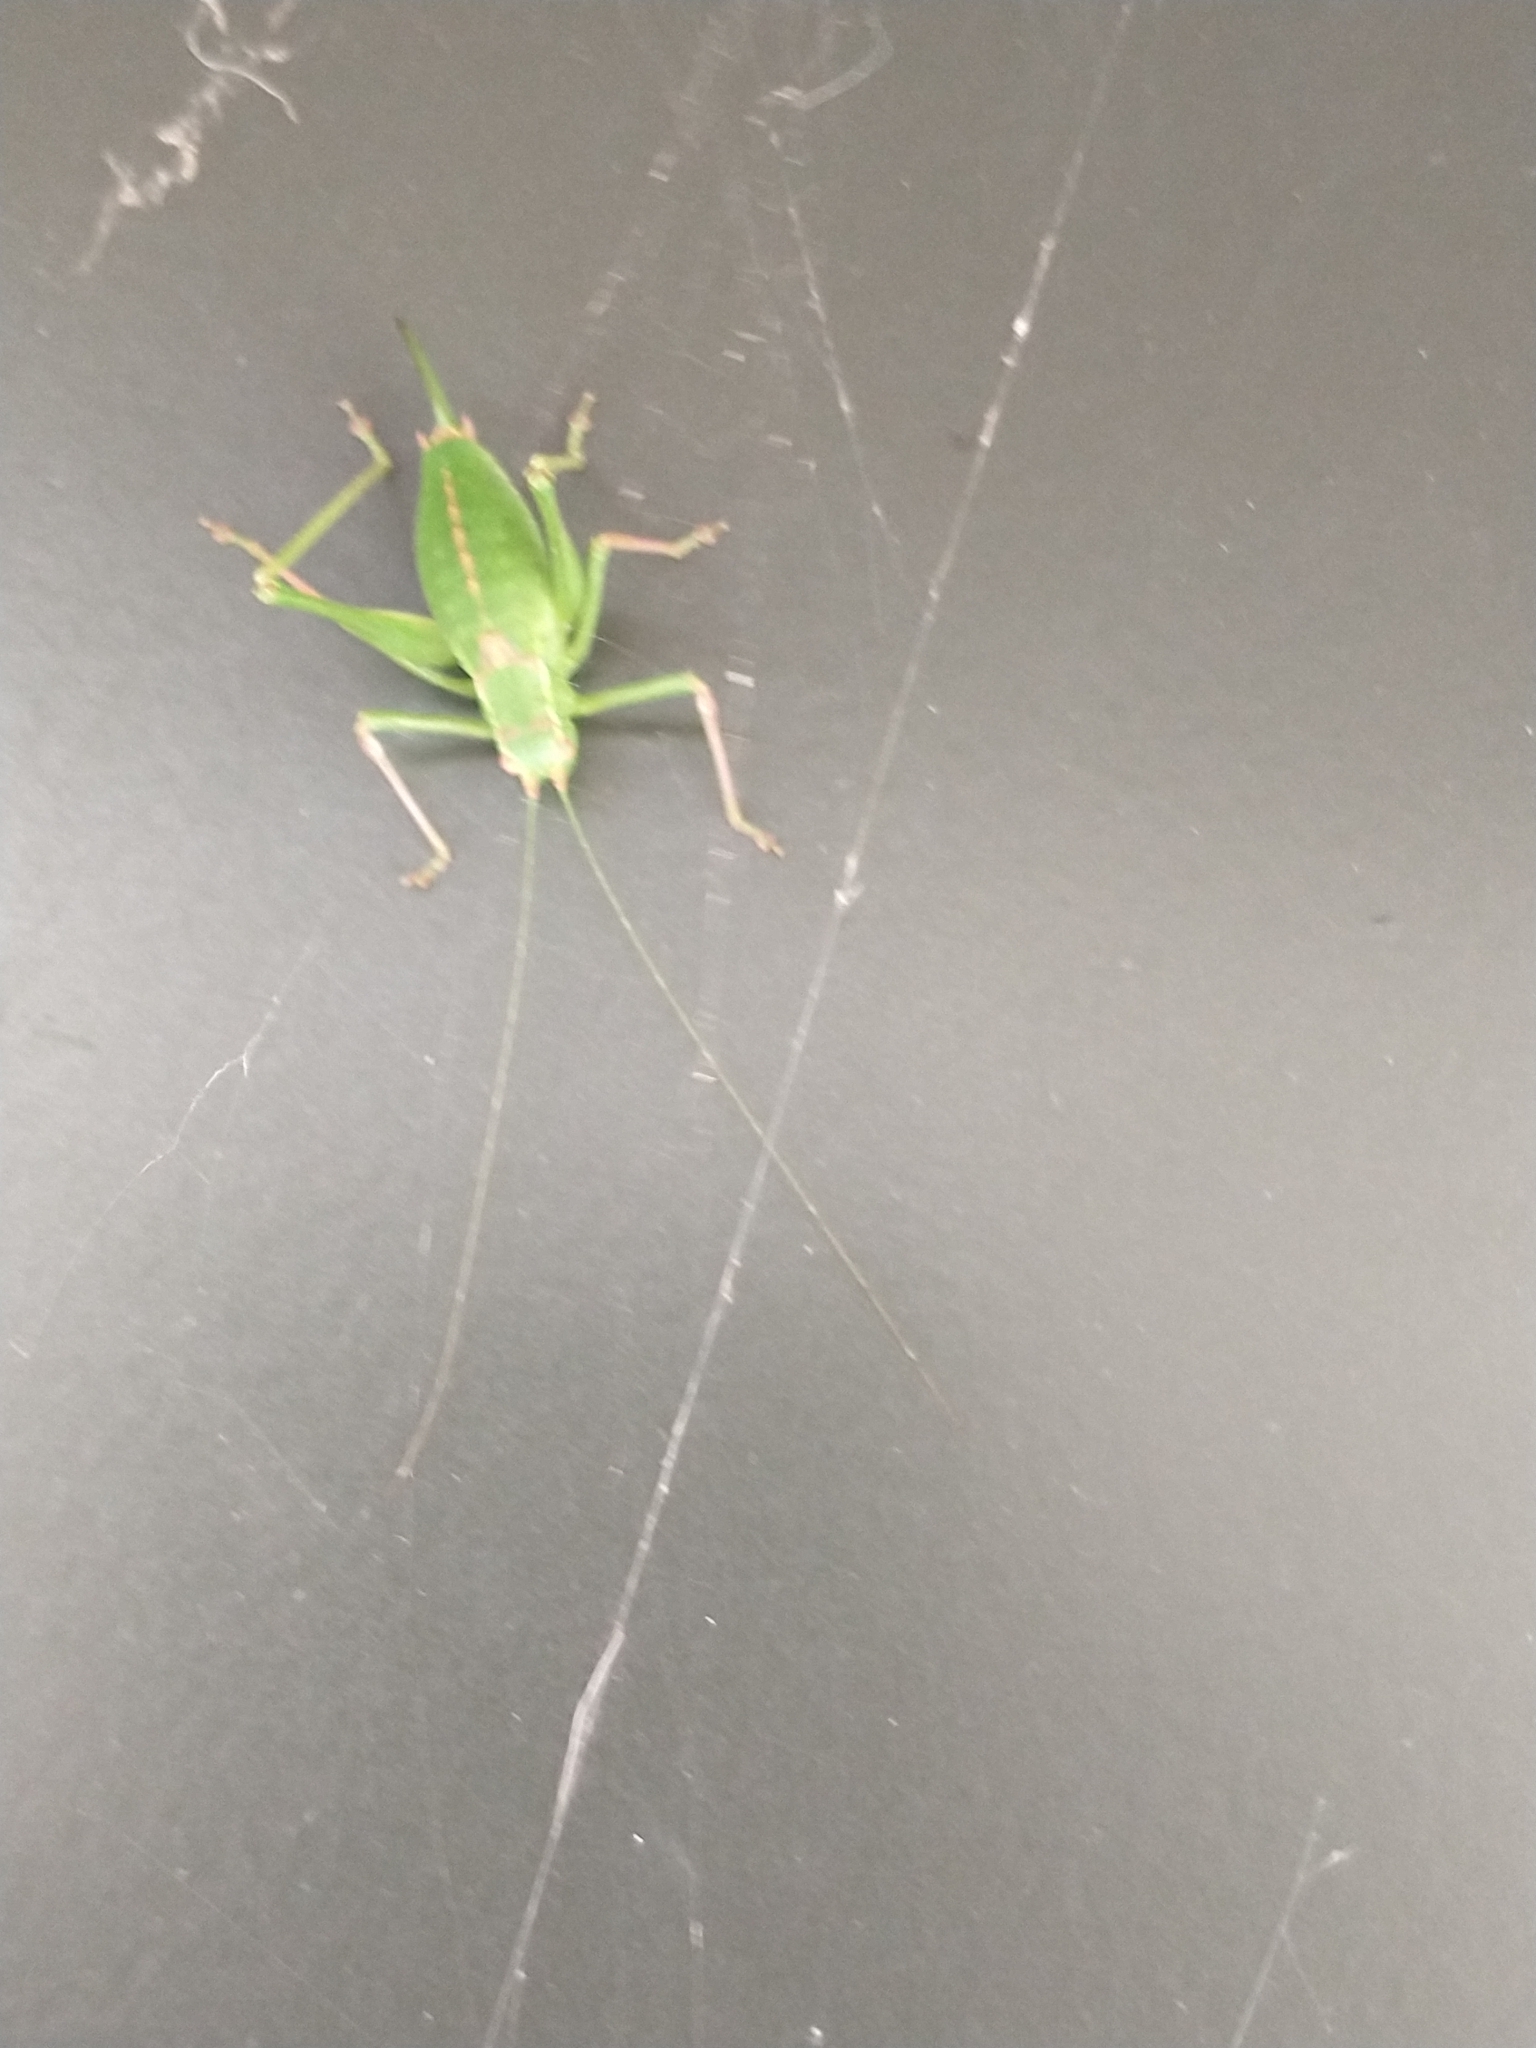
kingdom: Animalia
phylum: Arthropoda
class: Insecta
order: Orthoptera
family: Tettigoniidae
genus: Leptophyes
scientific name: Leptophyes punctatissima
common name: Speckled bush-cricket
